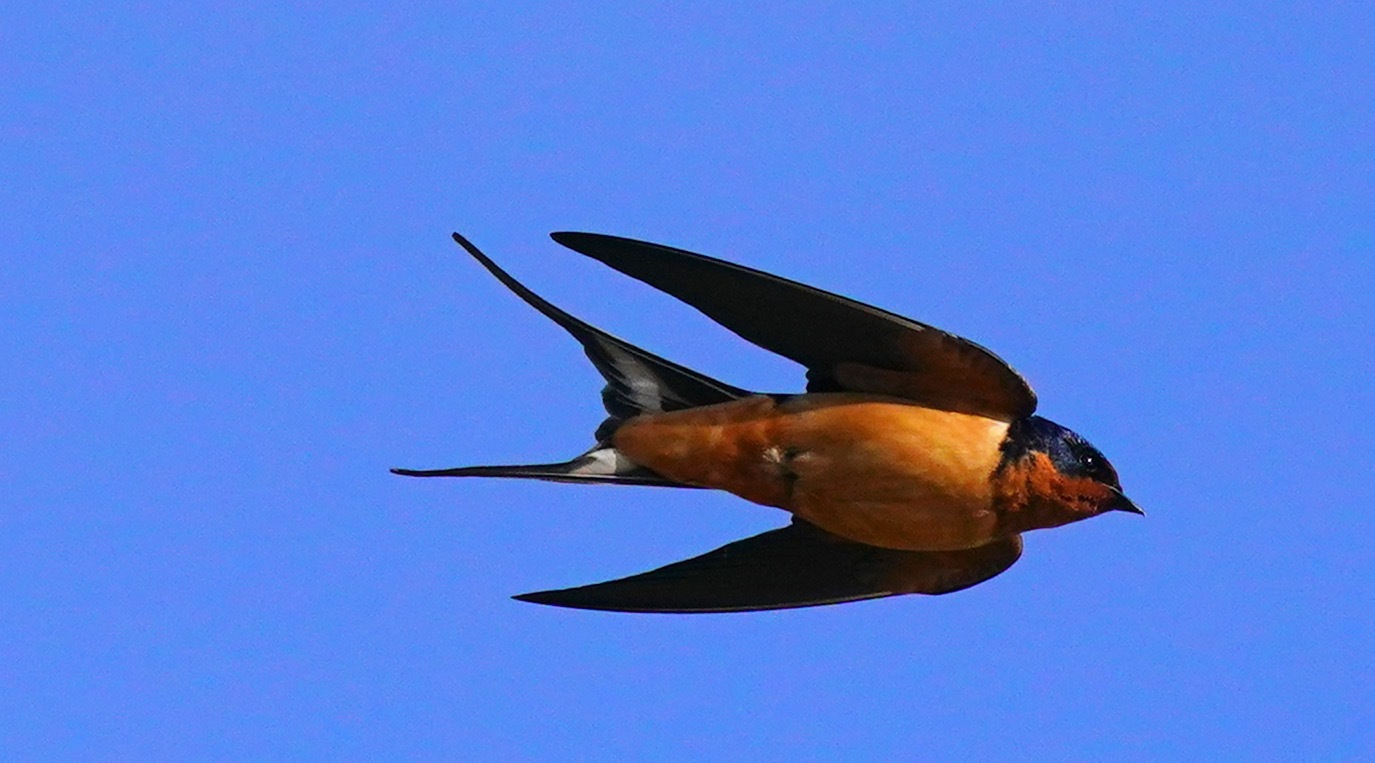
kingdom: Animalia
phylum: Chordata
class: Aves
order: Passeriformes
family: Hirundinidae
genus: Hirundo
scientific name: Hirundo rustica
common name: Barn swallow
